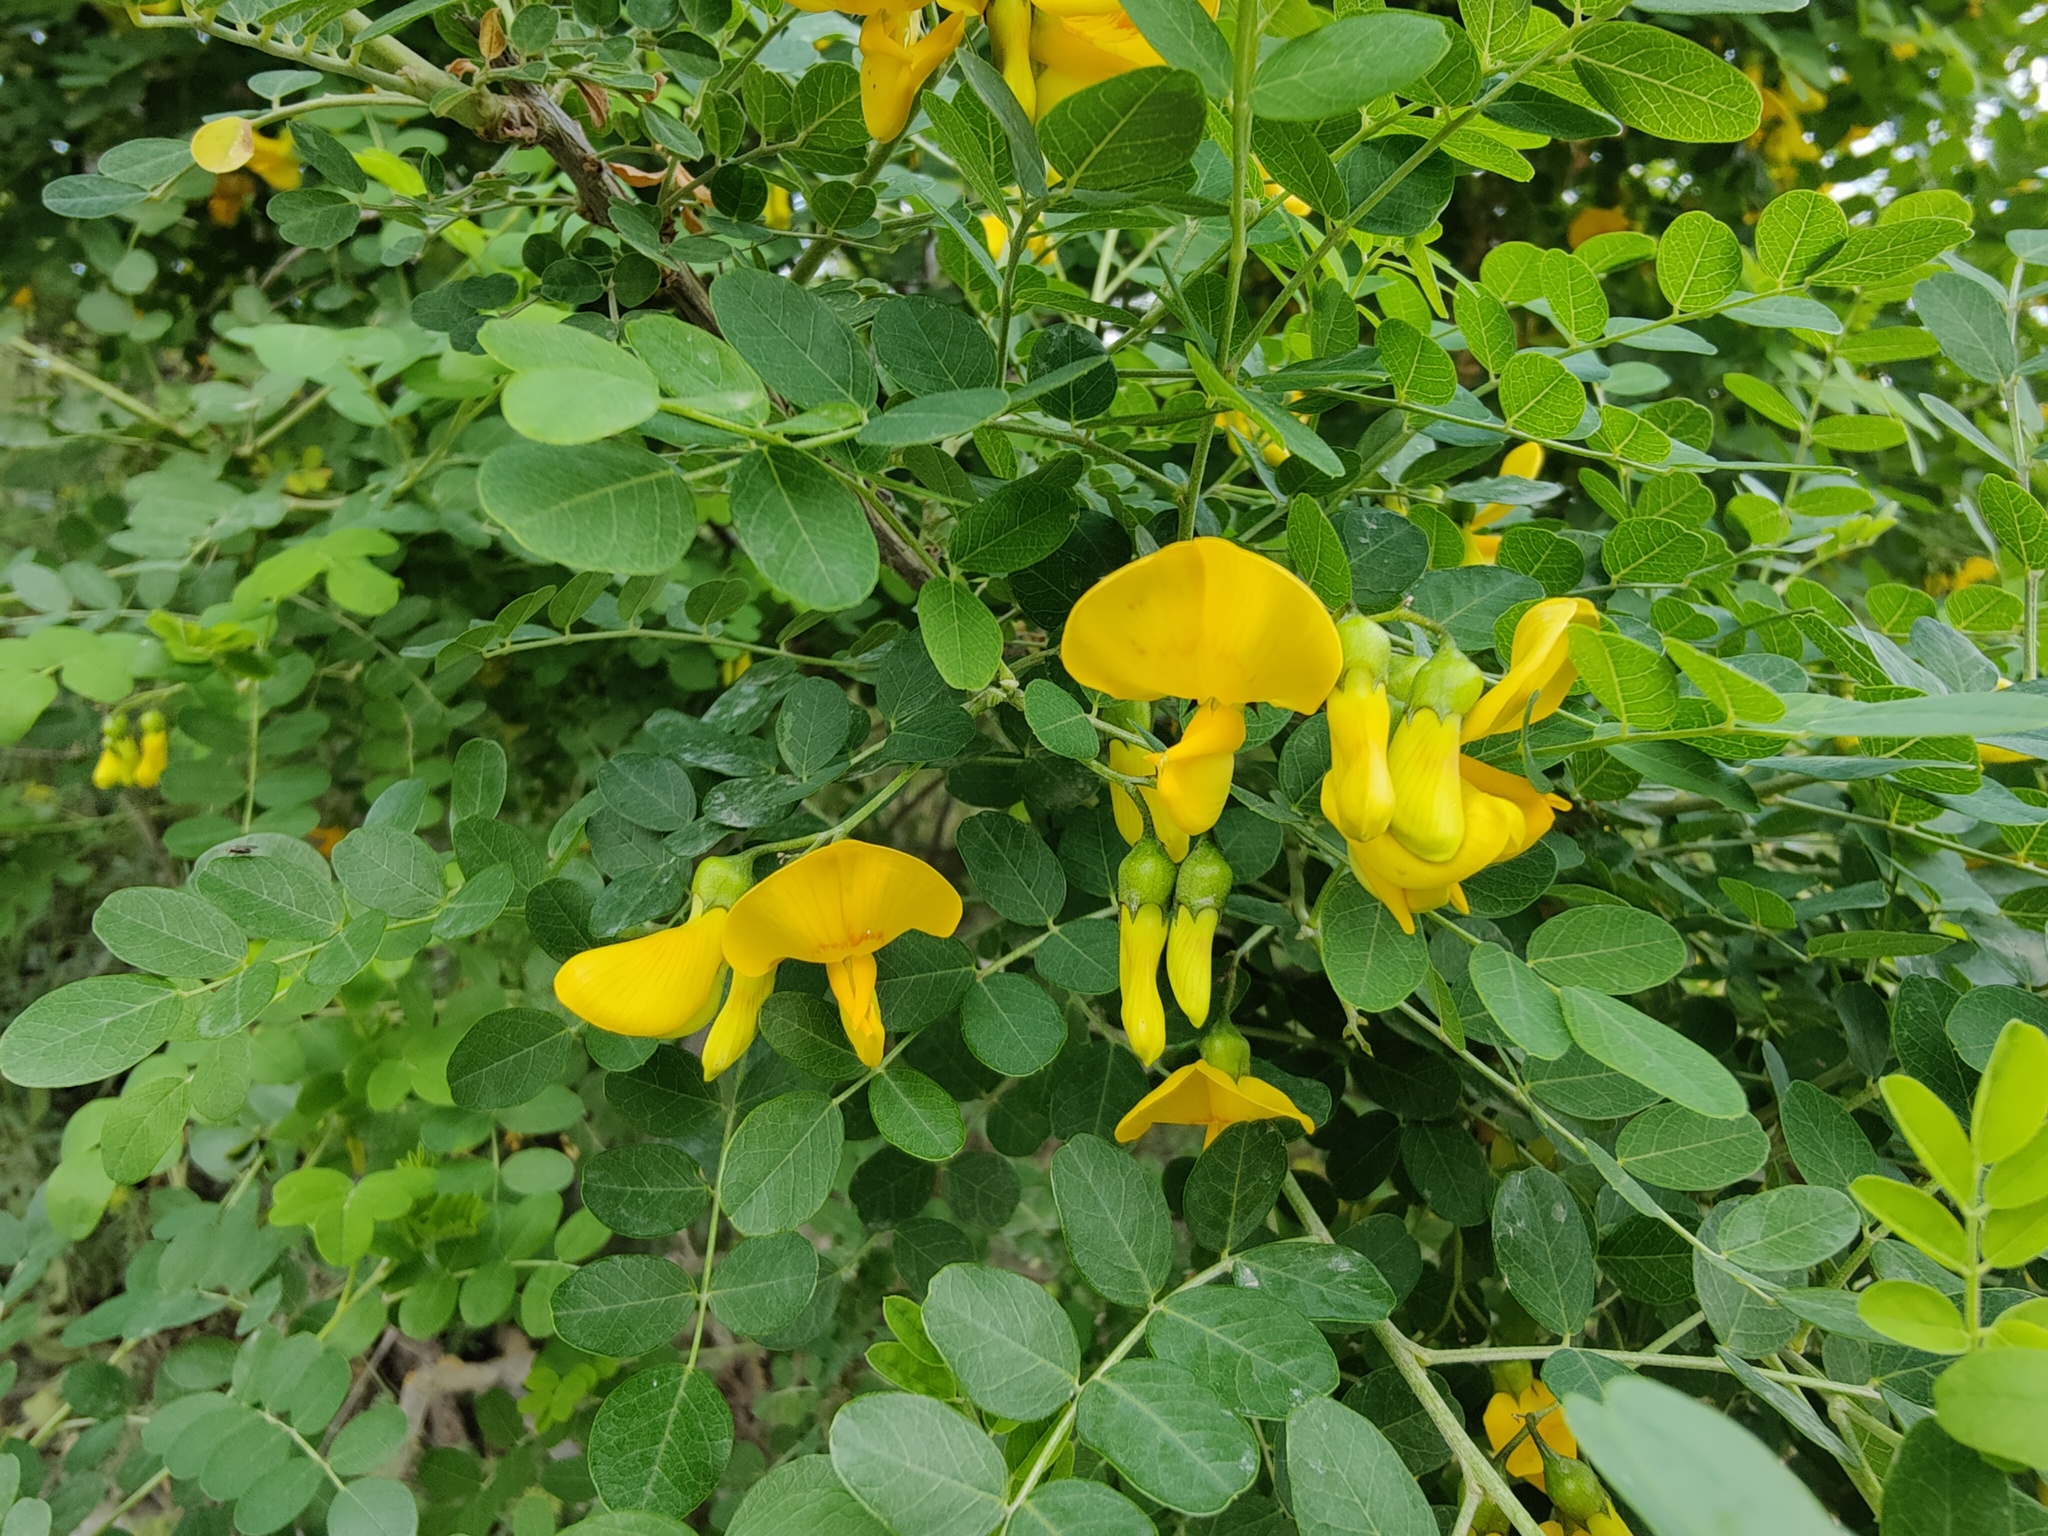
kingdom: Plantae
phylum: Tracheophyta
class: Magnoliopsida
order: Fabales
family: Fabaceae
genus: Colutea
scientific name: Colutea cilicica
